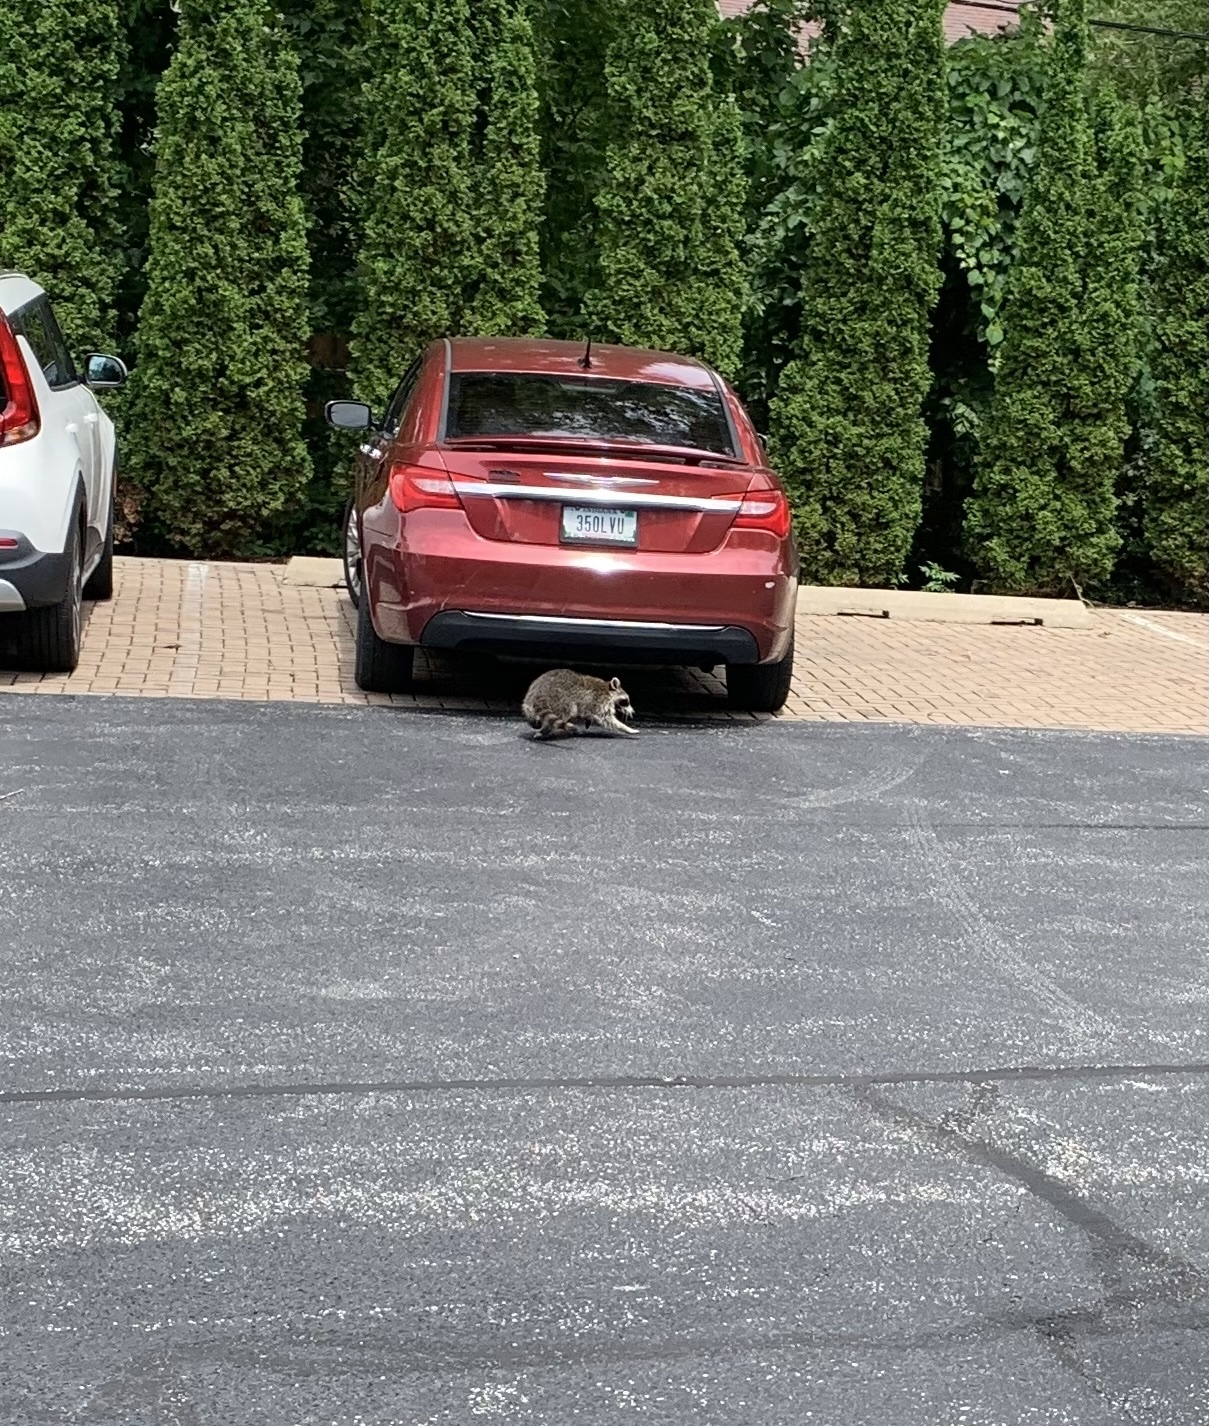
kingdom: Animalia
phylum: Chordata
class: Mammalia
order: Carnivora
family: Procyonidae
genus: Procyon
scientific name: Procyon lotor
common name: Raccoon
